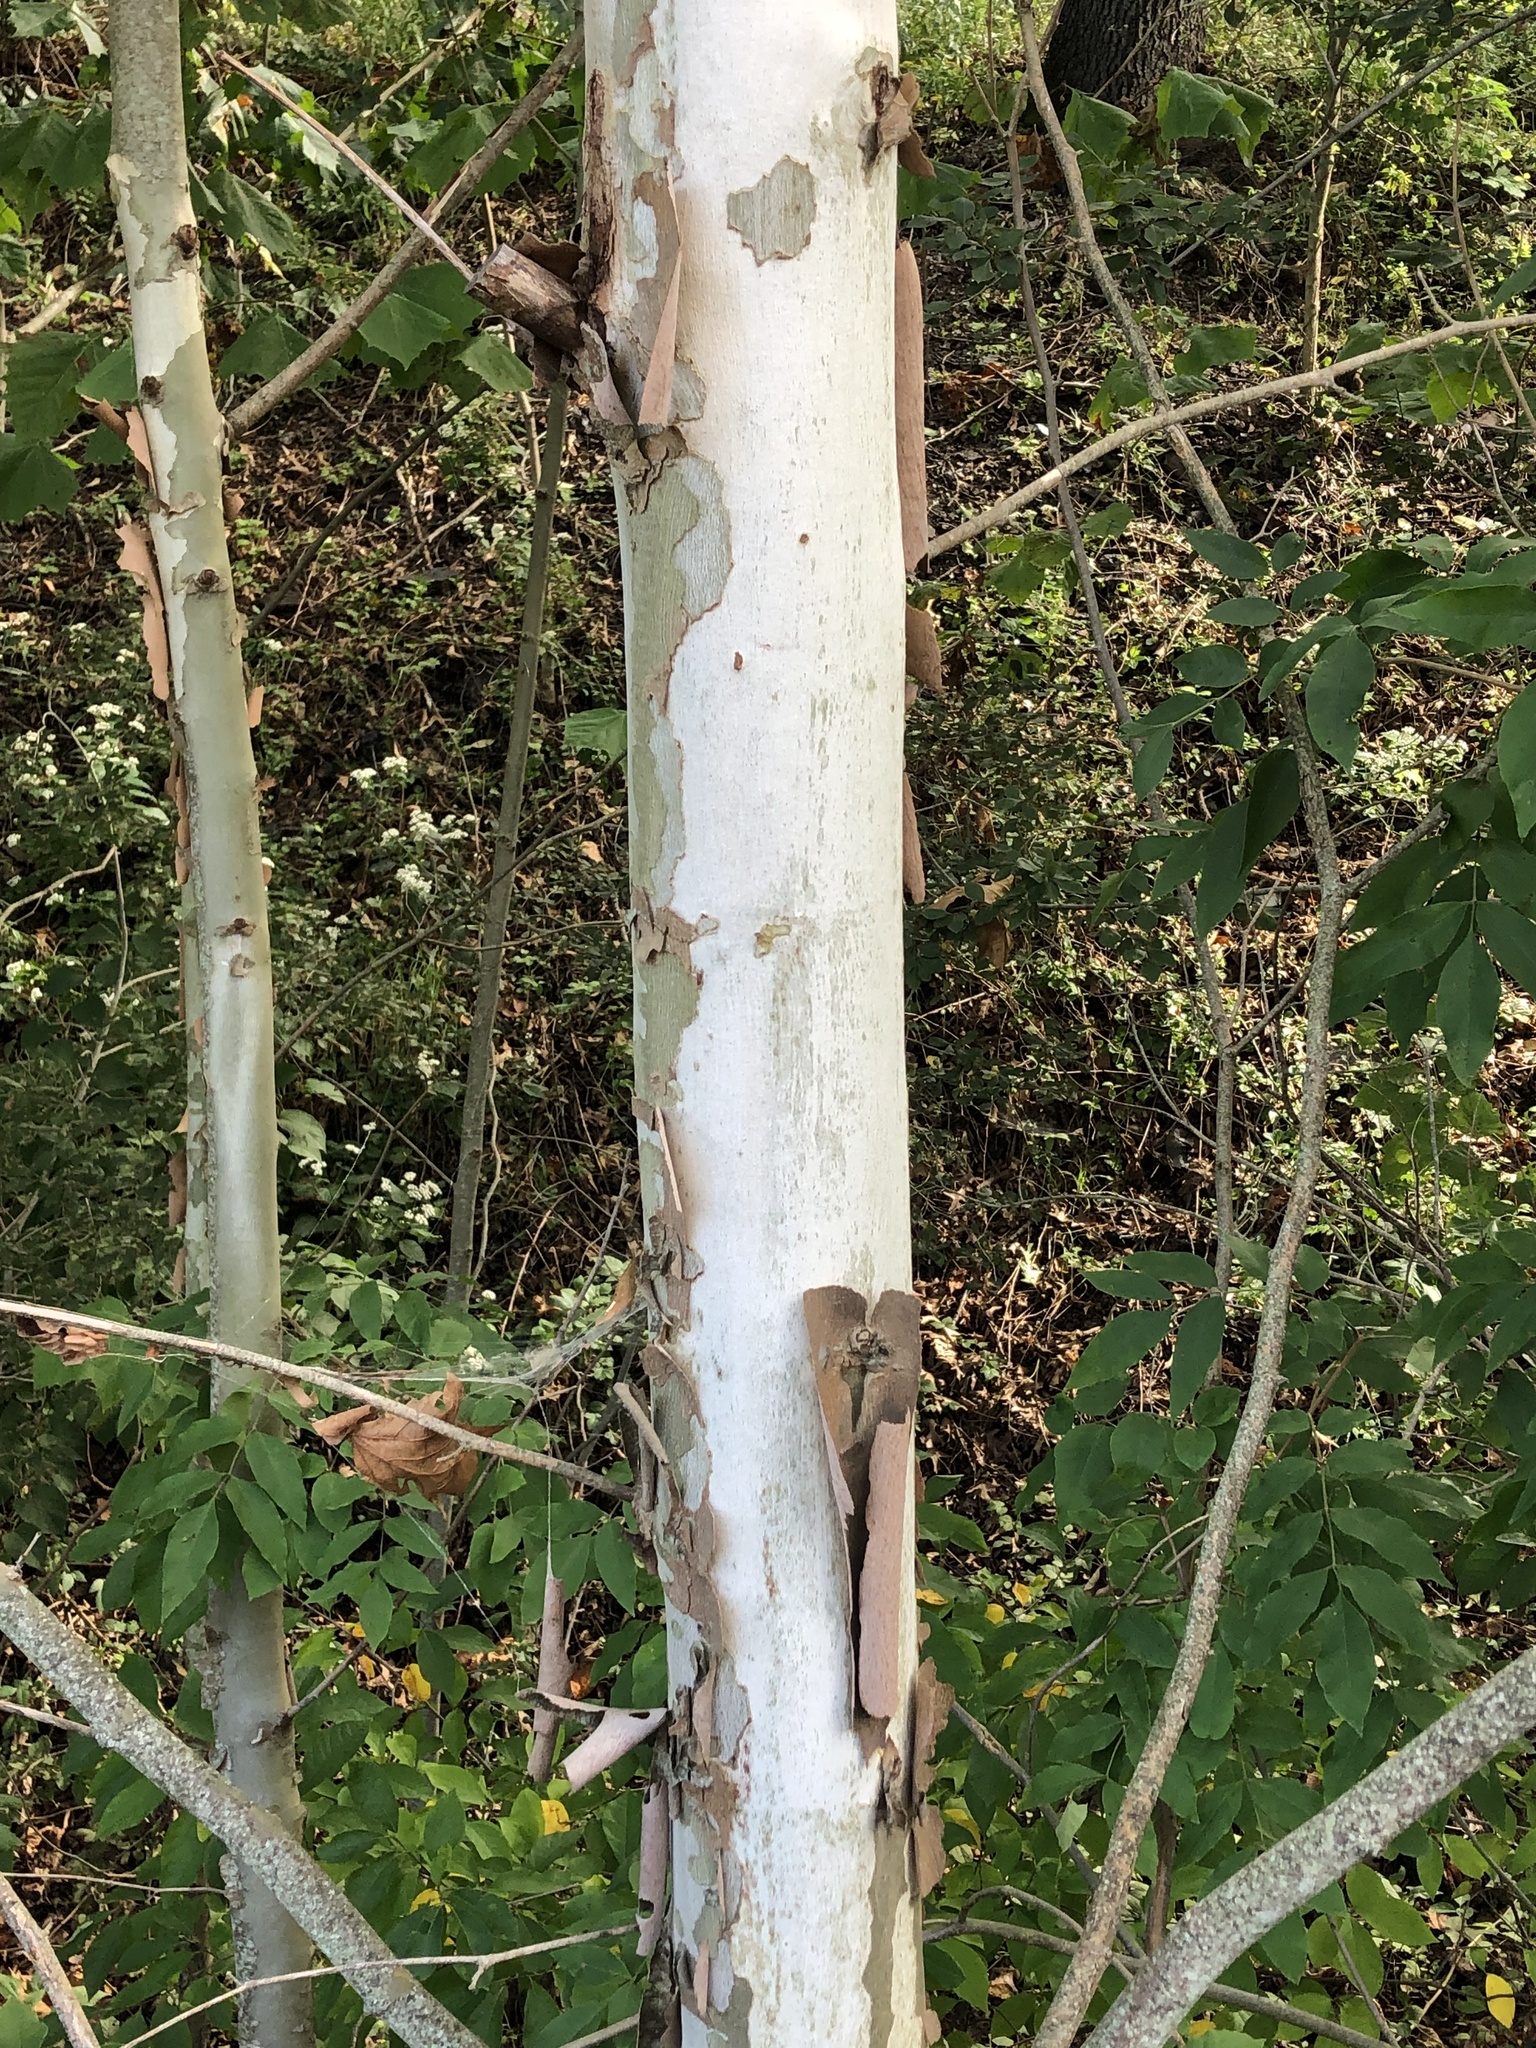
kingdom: Plantae
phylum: Tracheophyta
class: Magnoliopsida
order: Proteales
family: Platanaceae
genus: Platanus
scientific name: Platanus occidentalis
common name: American sycamore
